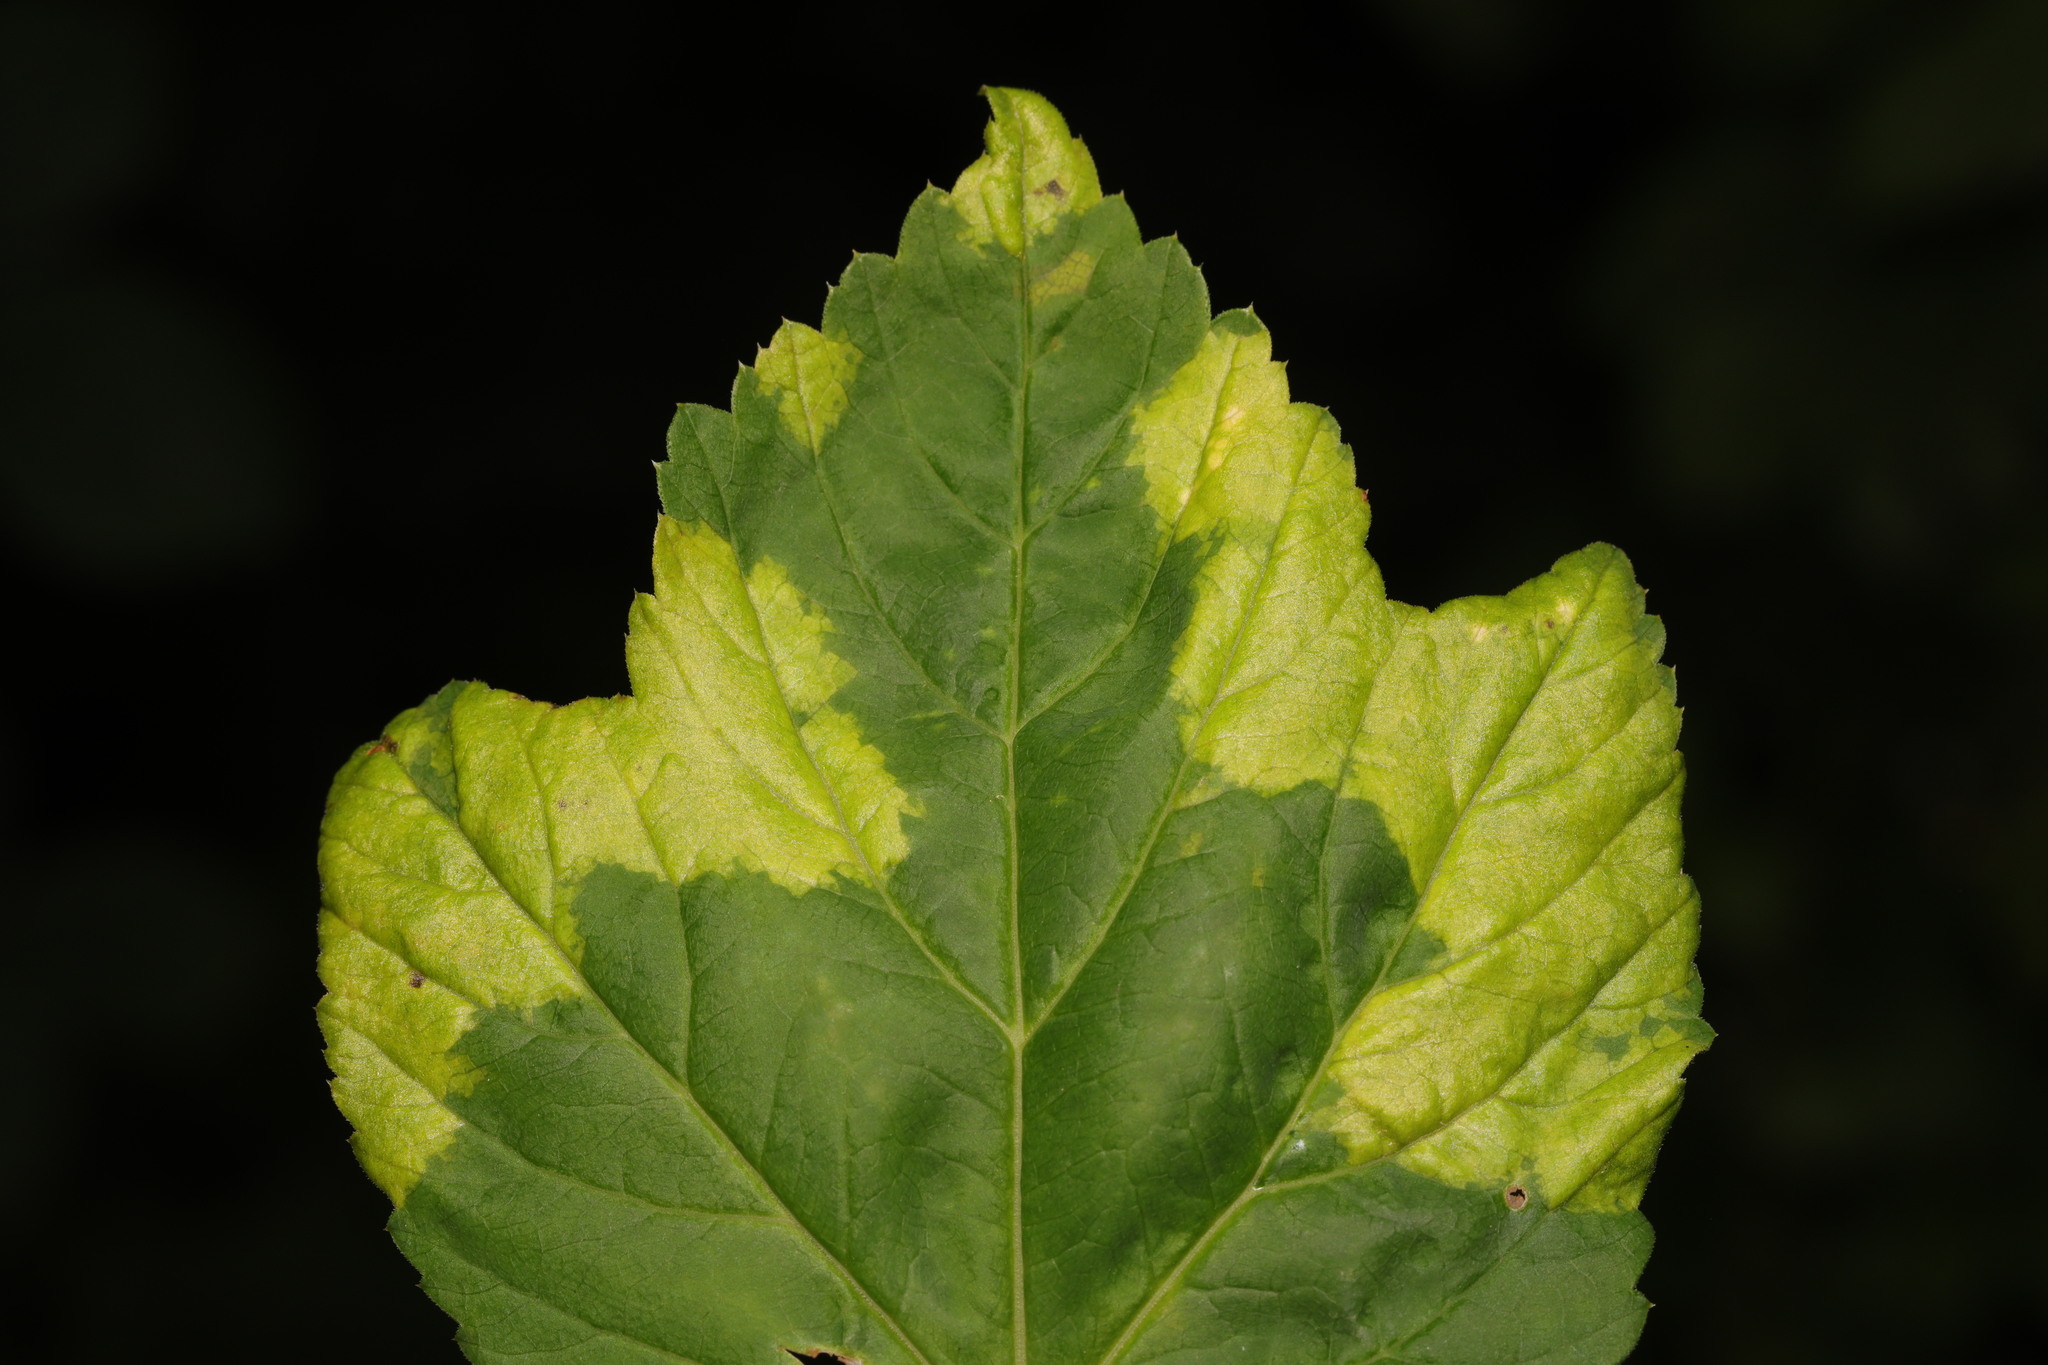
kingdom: Chromista
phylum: Oomycota
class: Peronosporea
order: Peronosporales
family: Peronosporaceae
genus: Peronospora
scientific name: Peronospora crustosa
